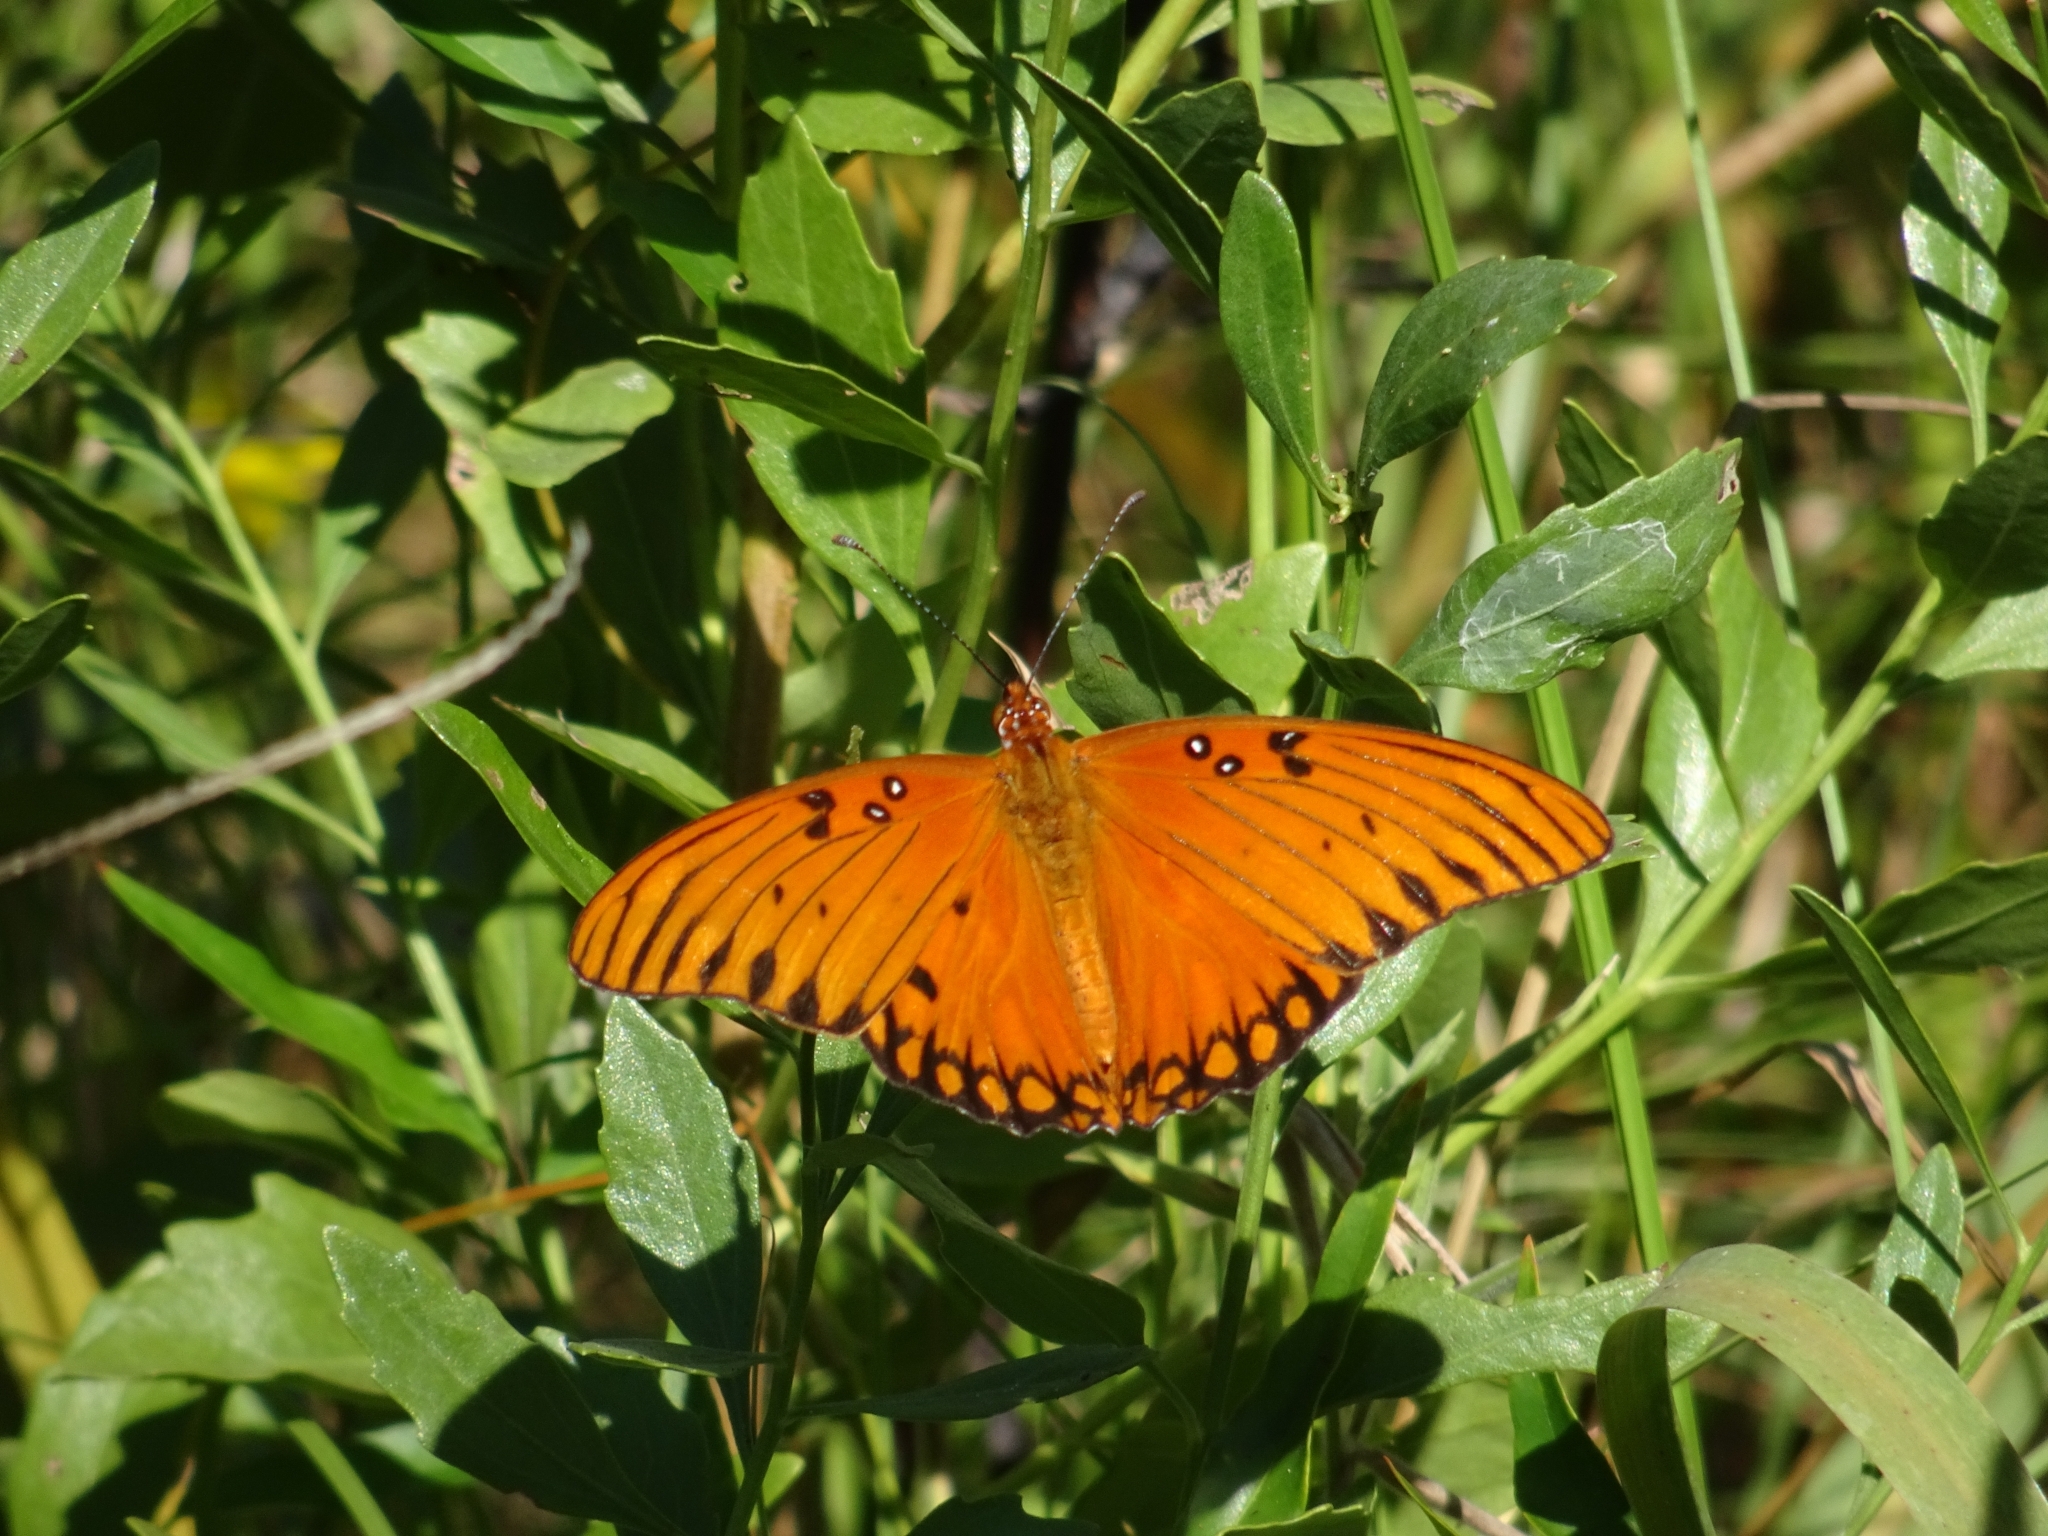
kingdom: Animalia
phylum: Arthropoda
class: Insecta
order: Lepidoptera
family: Nymphalidae
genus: Dione
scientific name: Dione vanillae
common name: Gulf fritillary
